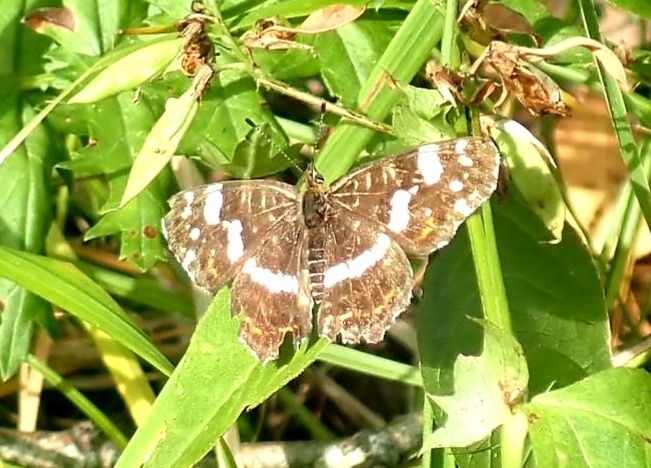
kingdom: Animalia
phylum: Arthropoda
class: Insecta
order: Lepidoptera
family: Nymphalidae
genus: Araschnia
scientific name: Araschnia levana
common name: Map butterfly
